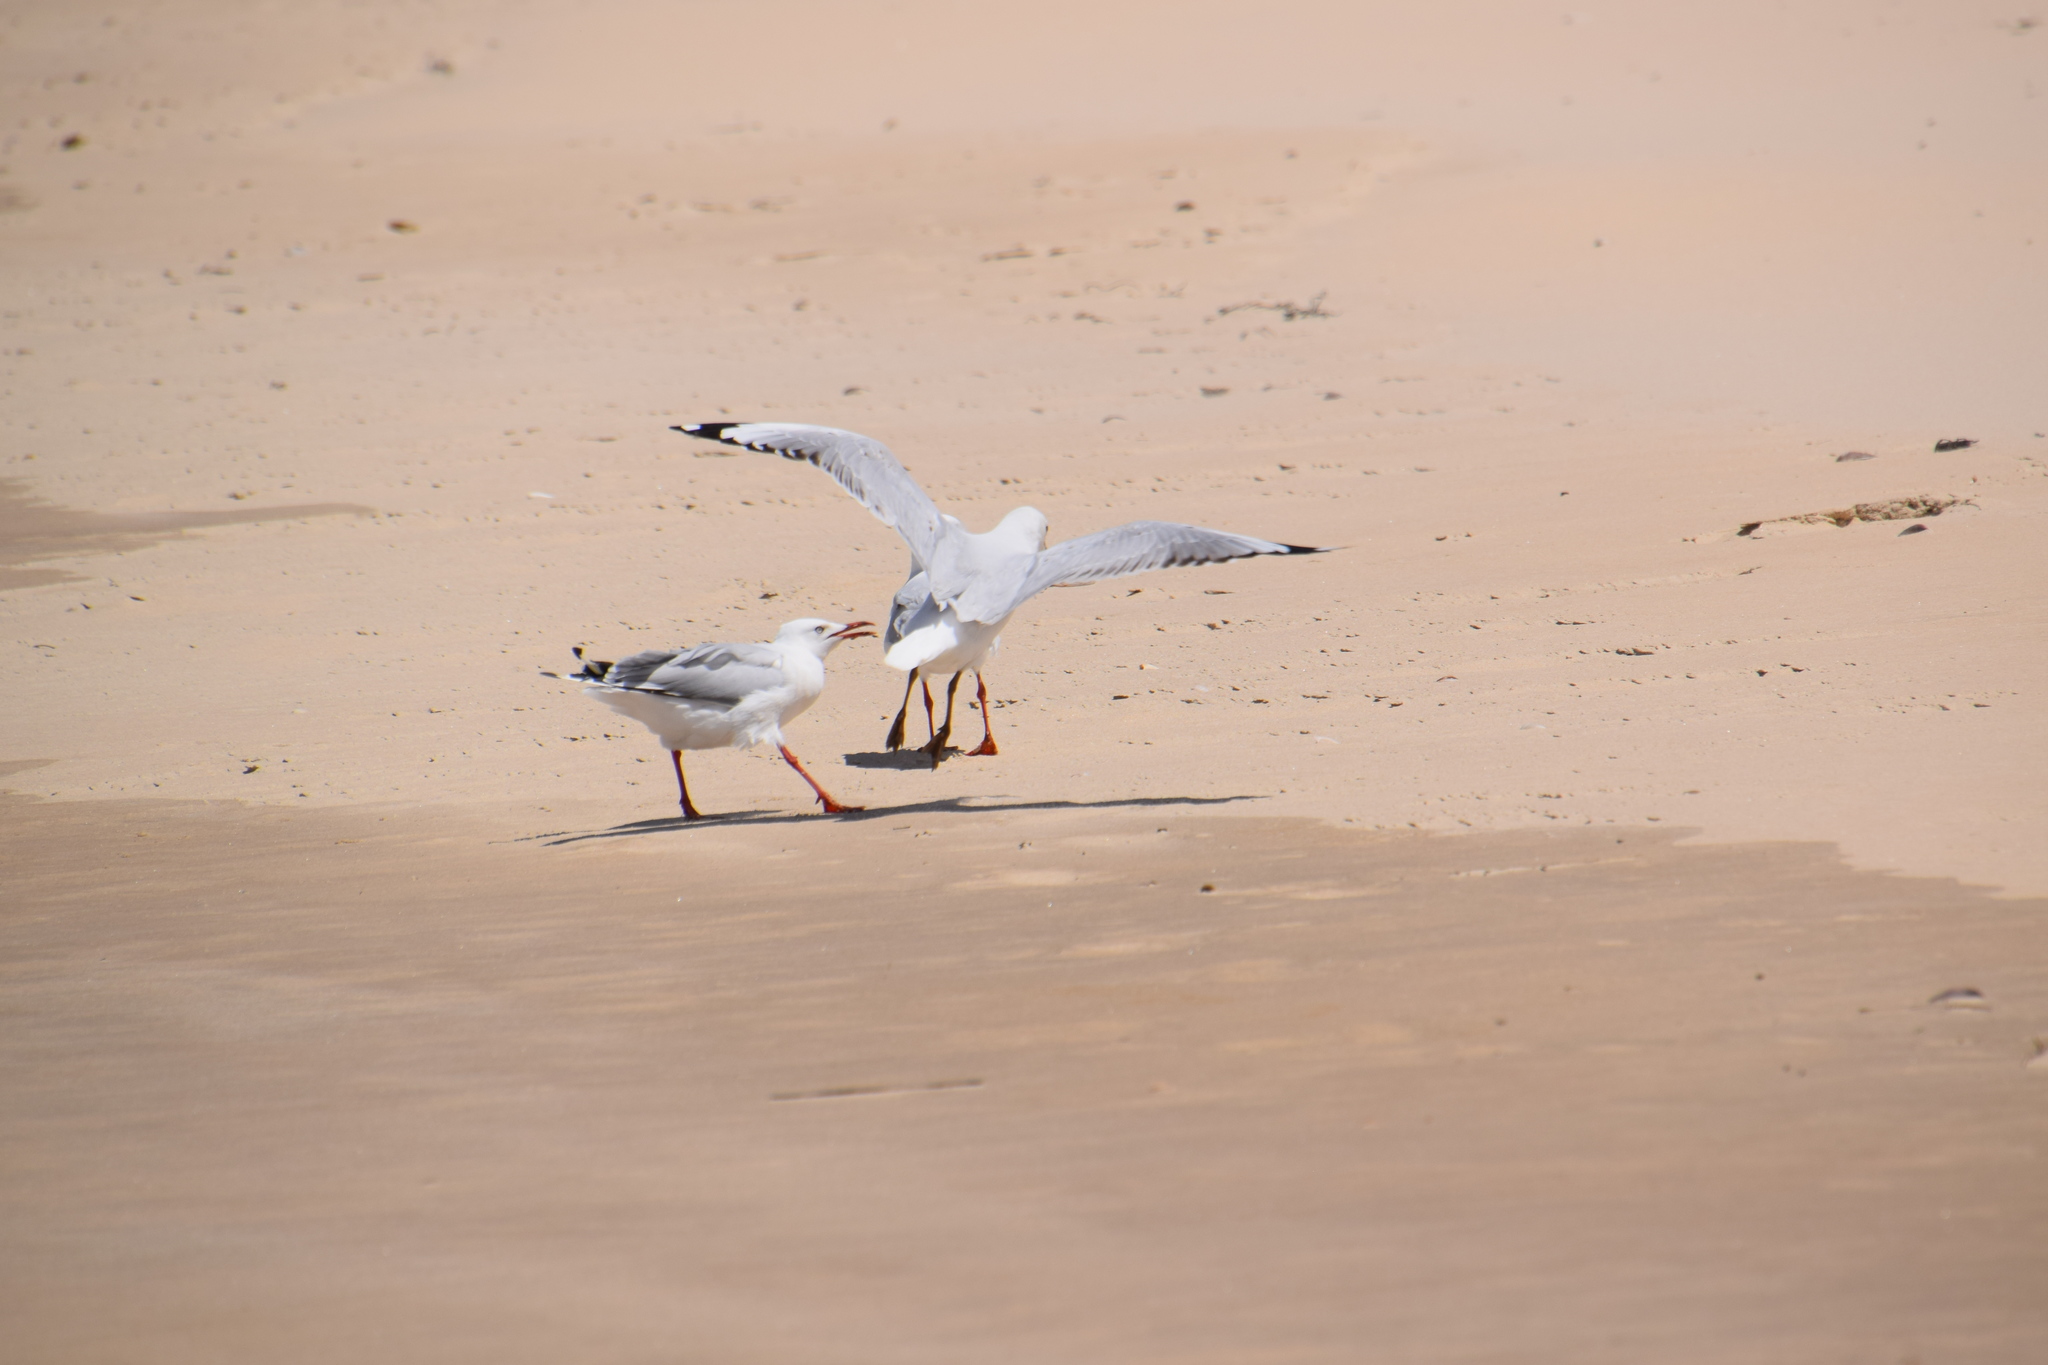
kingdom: Animalia
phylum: Chordata
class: Aves
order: Charadriiformes
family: Laridae
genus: Chroicocephalus
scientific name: Chroicocephalus novaehollandiae
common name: Silver gull
